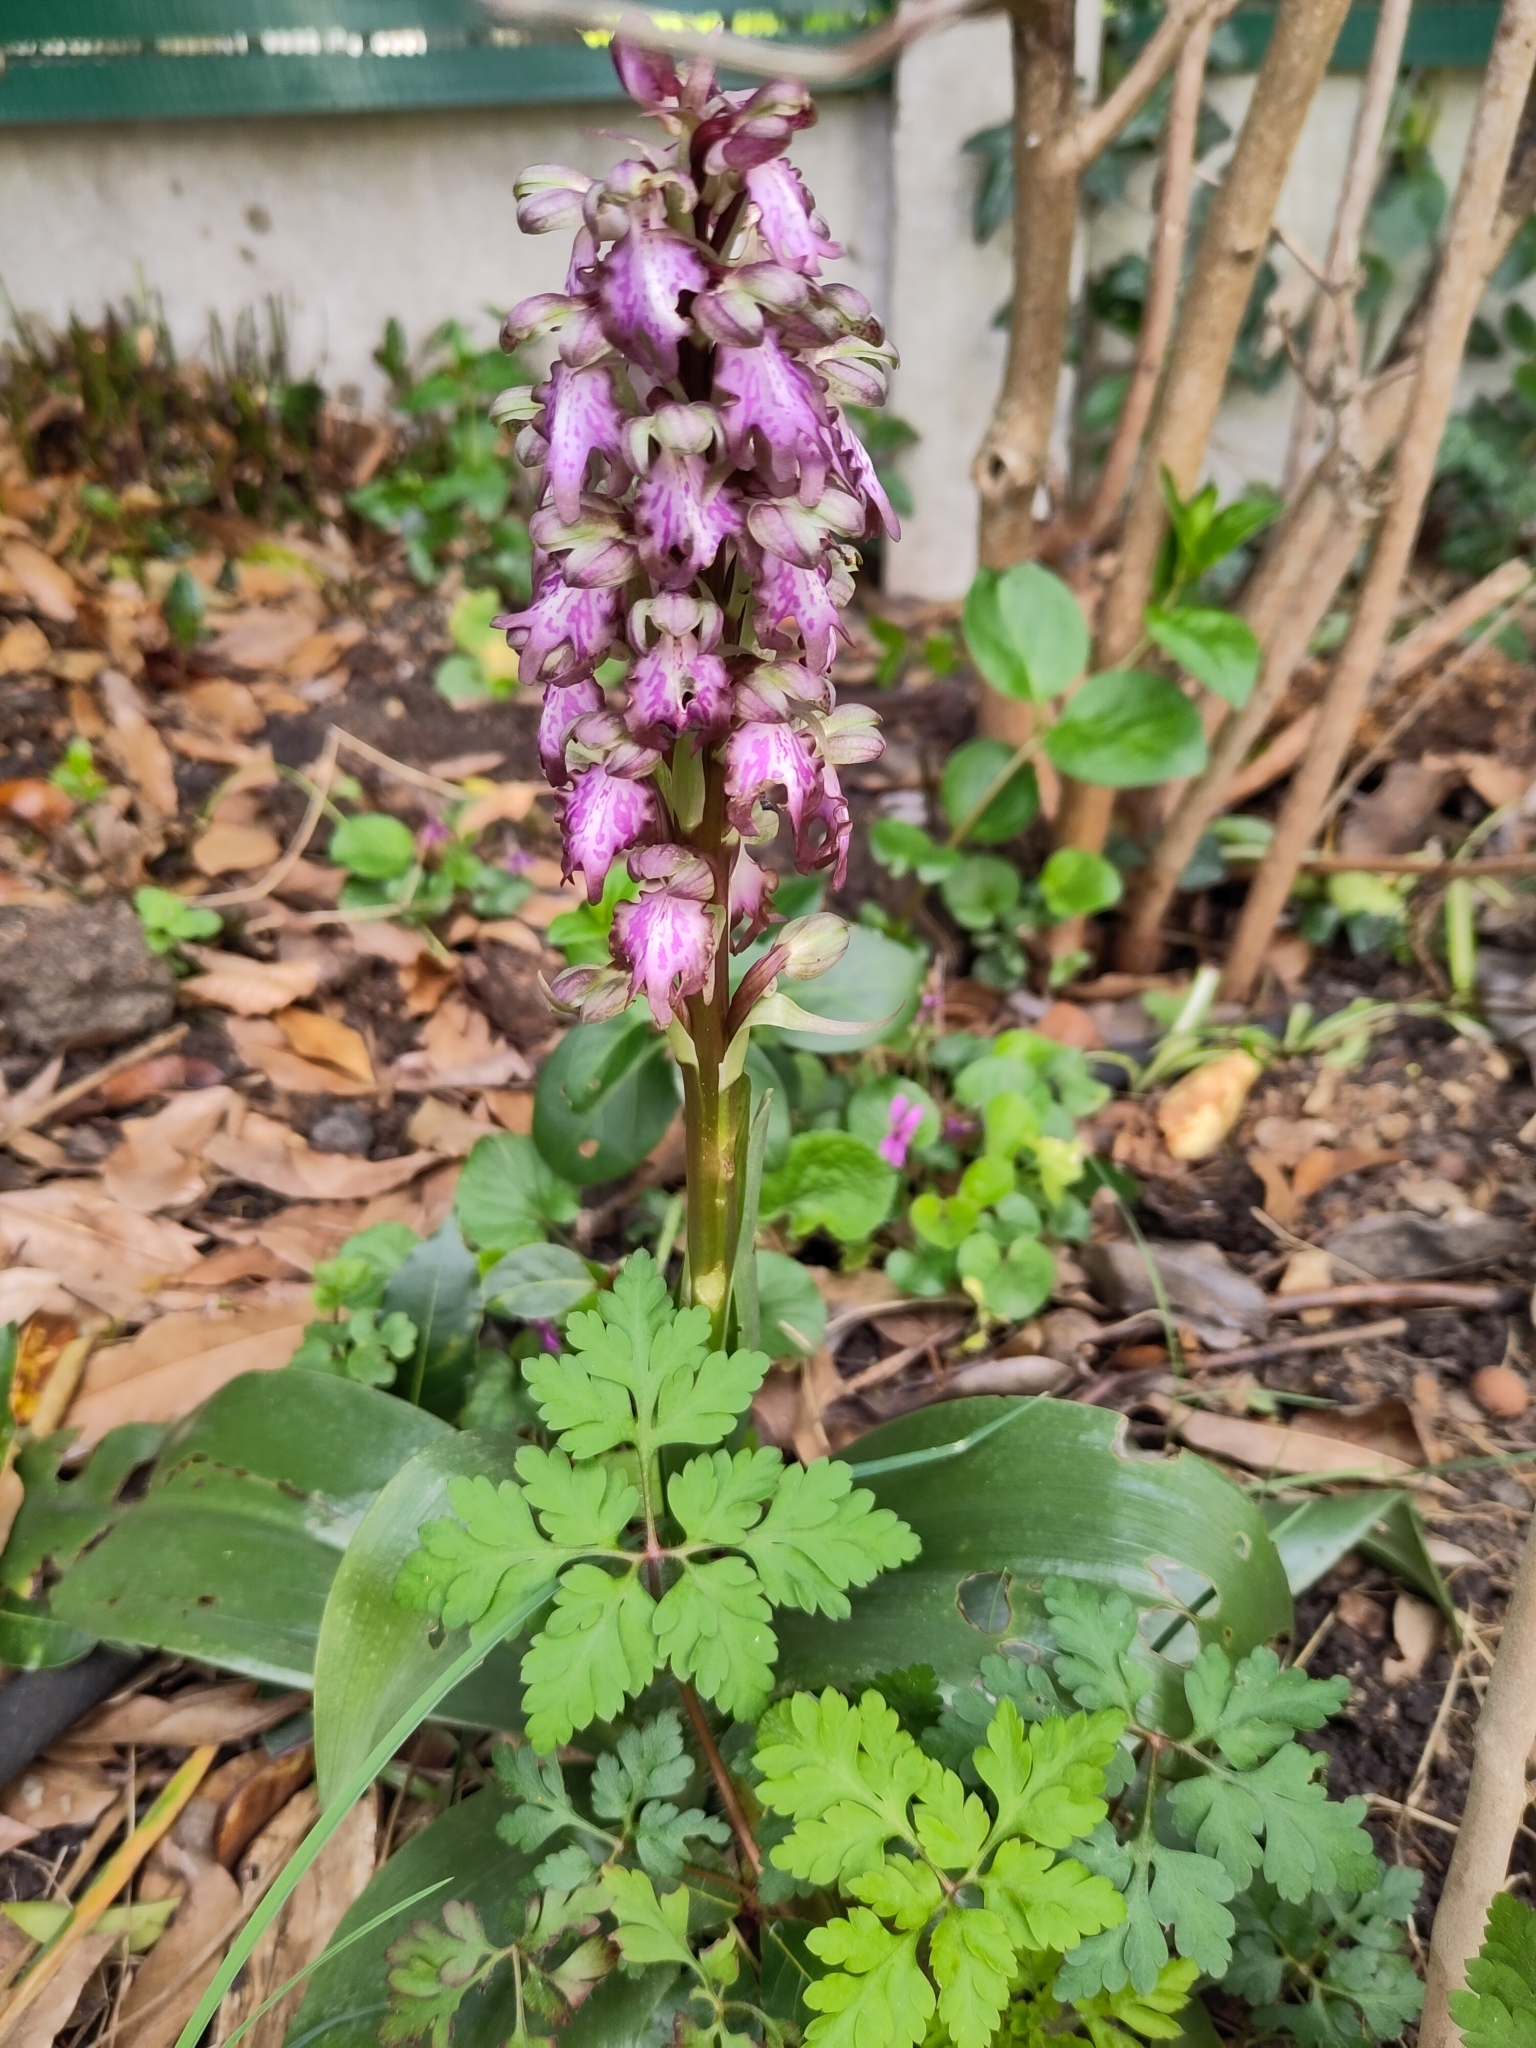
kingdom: Plantae
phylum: Tracheophyta
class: Liliopsida
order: Asparagales
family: Orchidaceae
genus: Himantoglossum
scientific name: Himantoglossum robertianum
